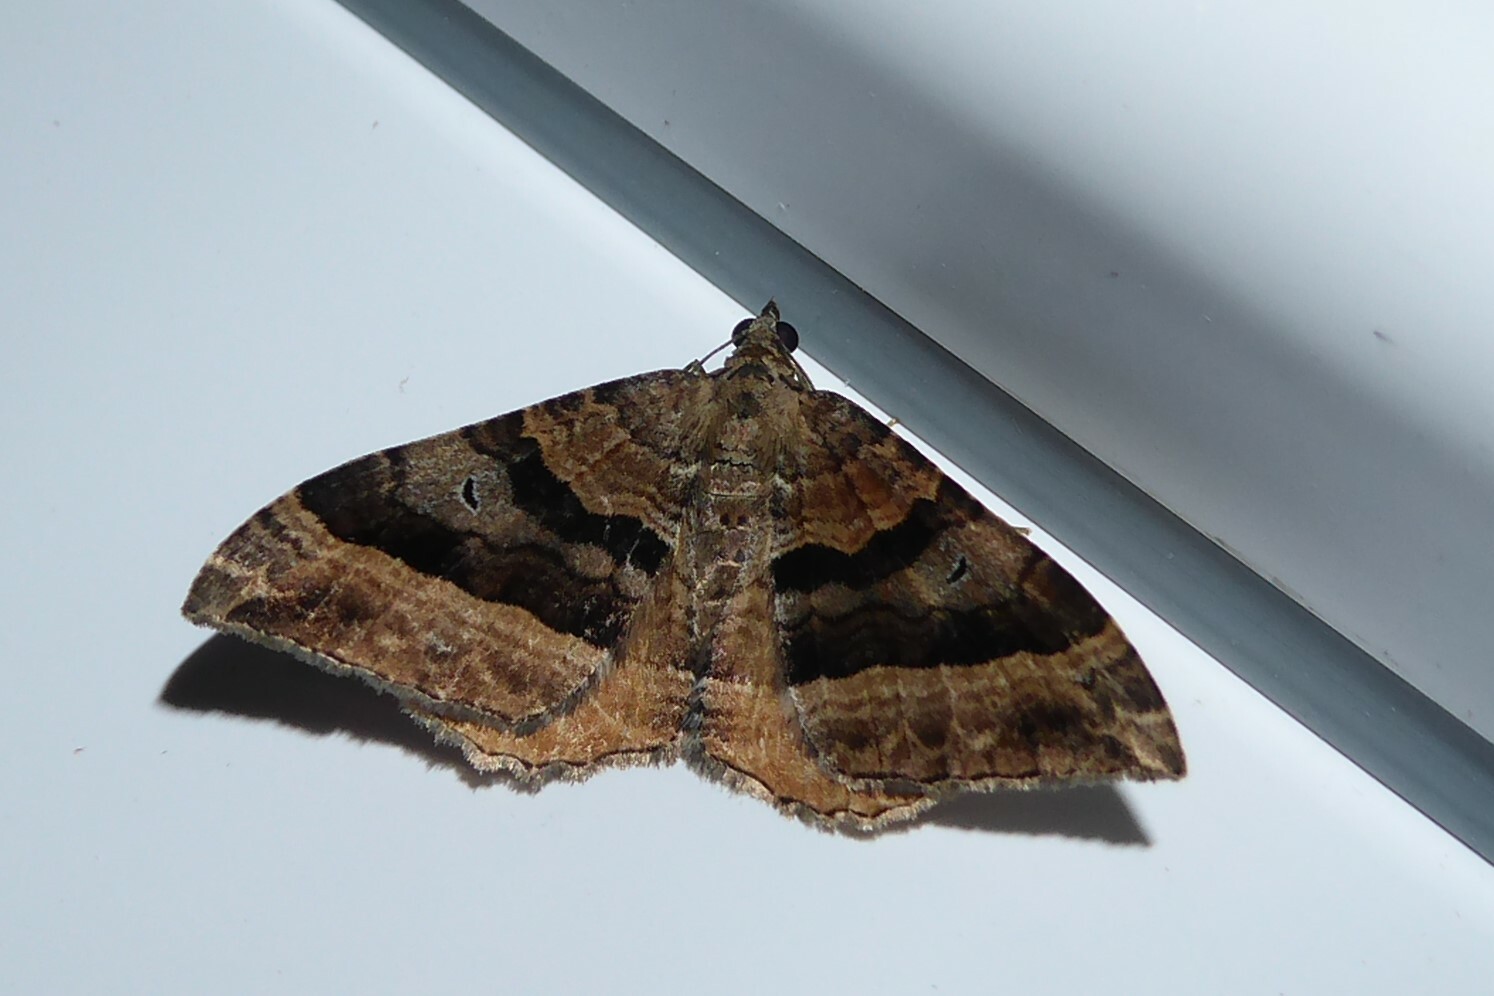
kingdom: Animalia
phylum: Arthropoda
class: Insecta
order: Lepidoptera
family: Geometridae
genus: Hydriomena
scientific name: Hydriomena deltoidata
